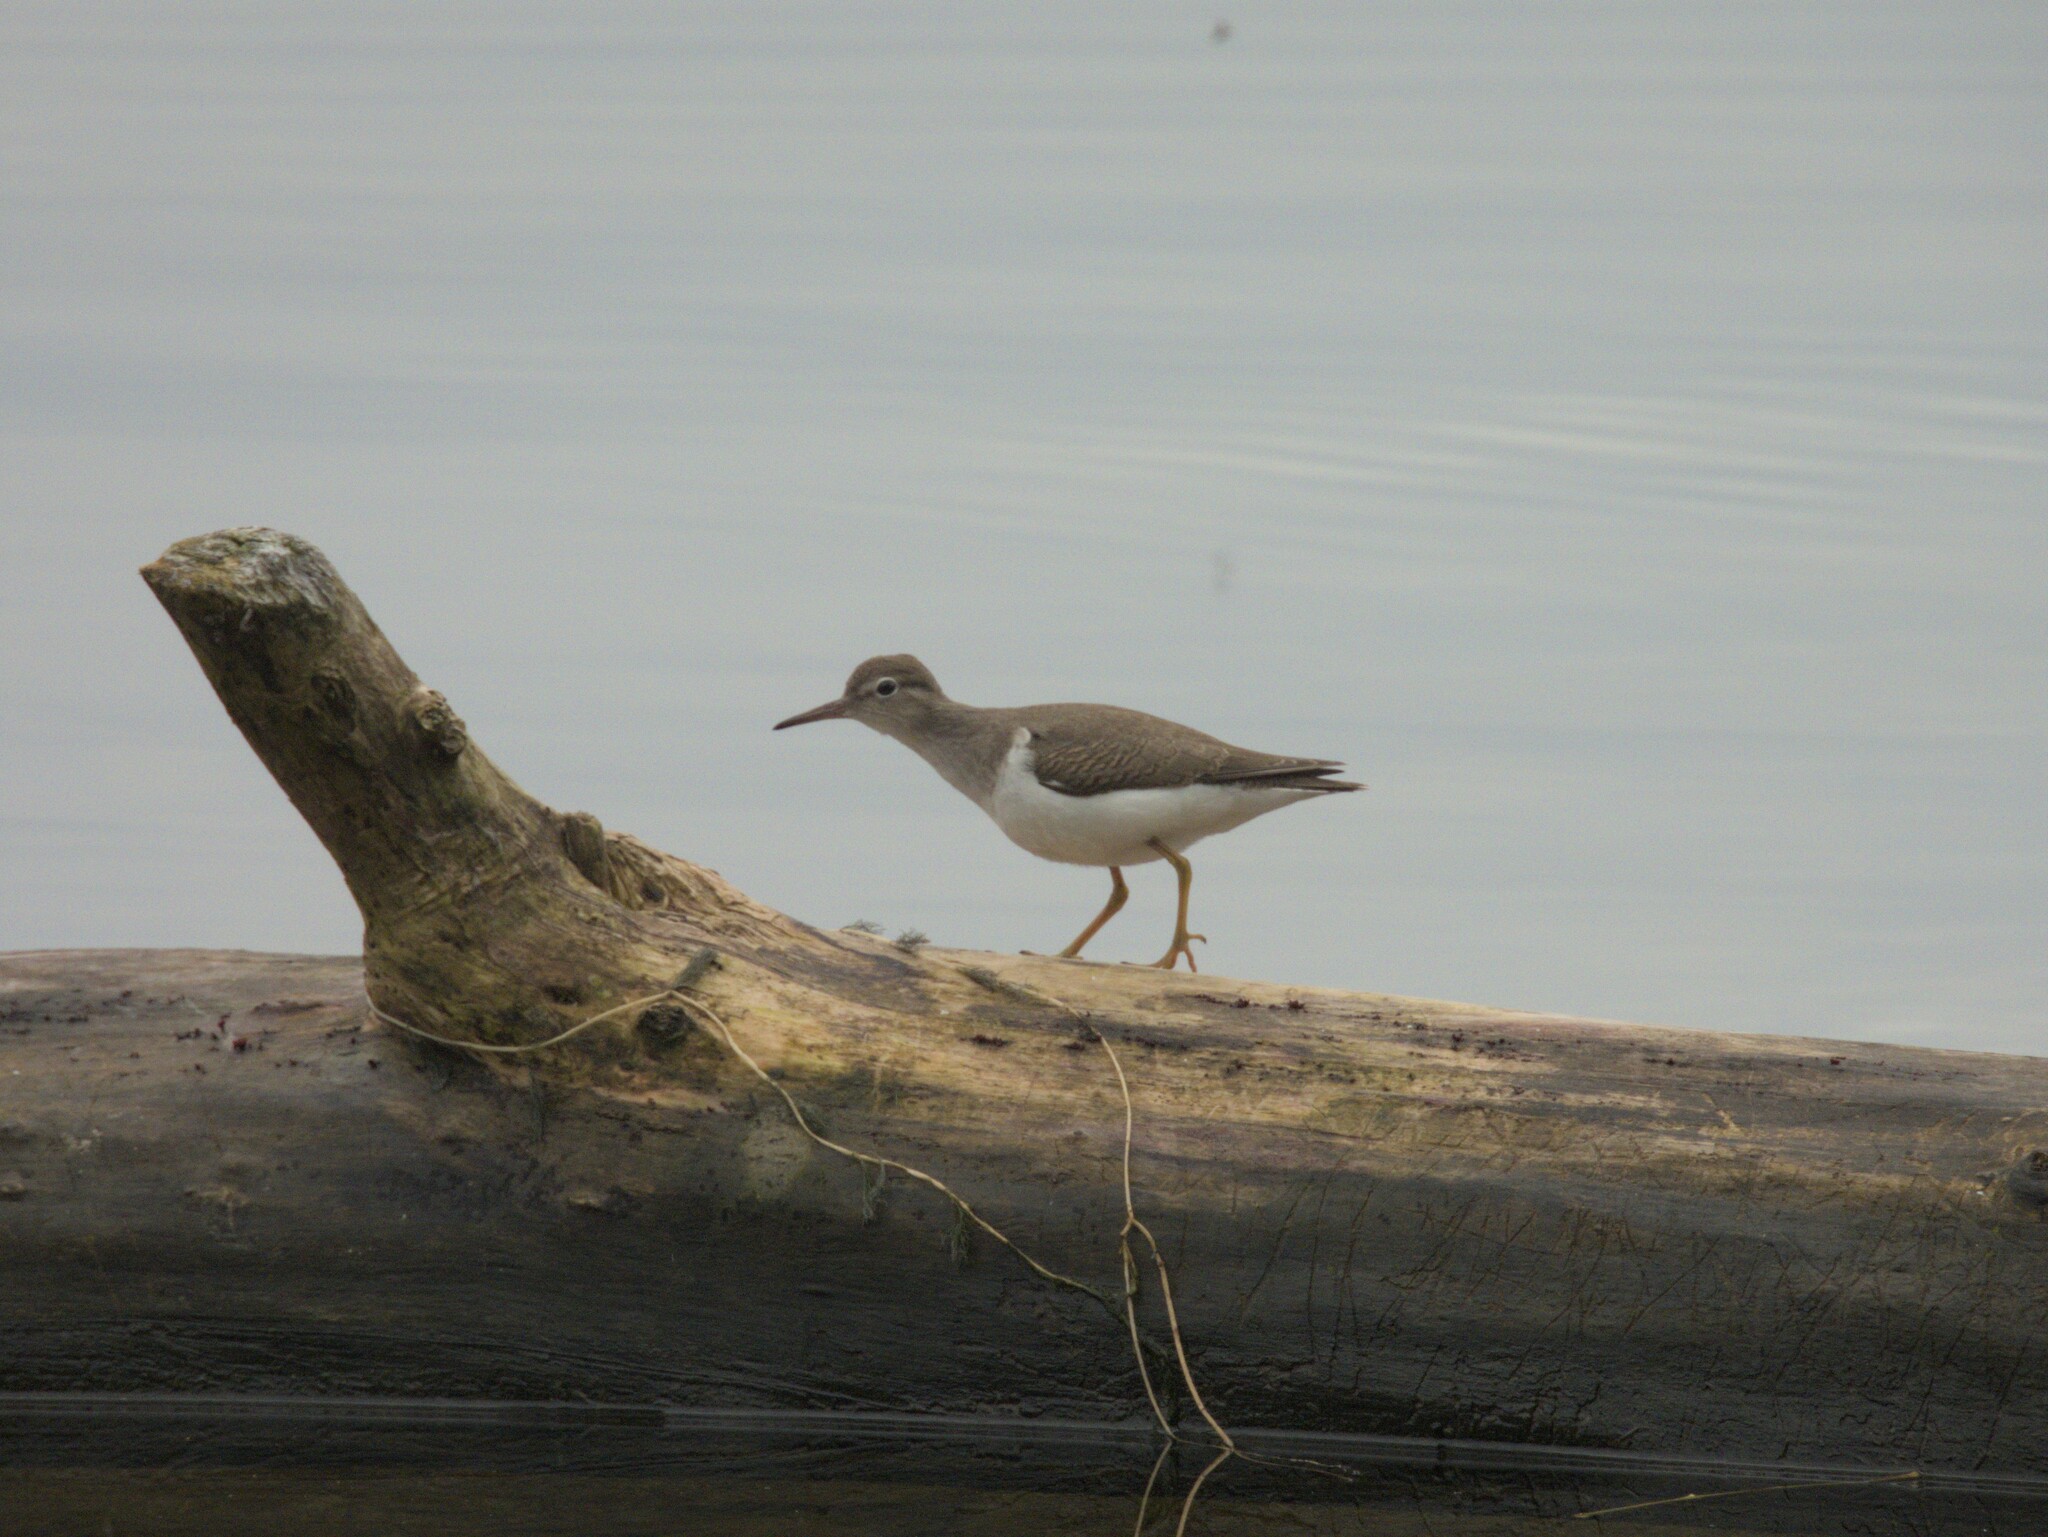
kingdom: Animalia
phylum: Chordata
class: Aves
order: Charadriiformes
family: Scolopacidae
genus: Actitis
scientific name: Actitis macularius
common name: Spotted sandpiper
